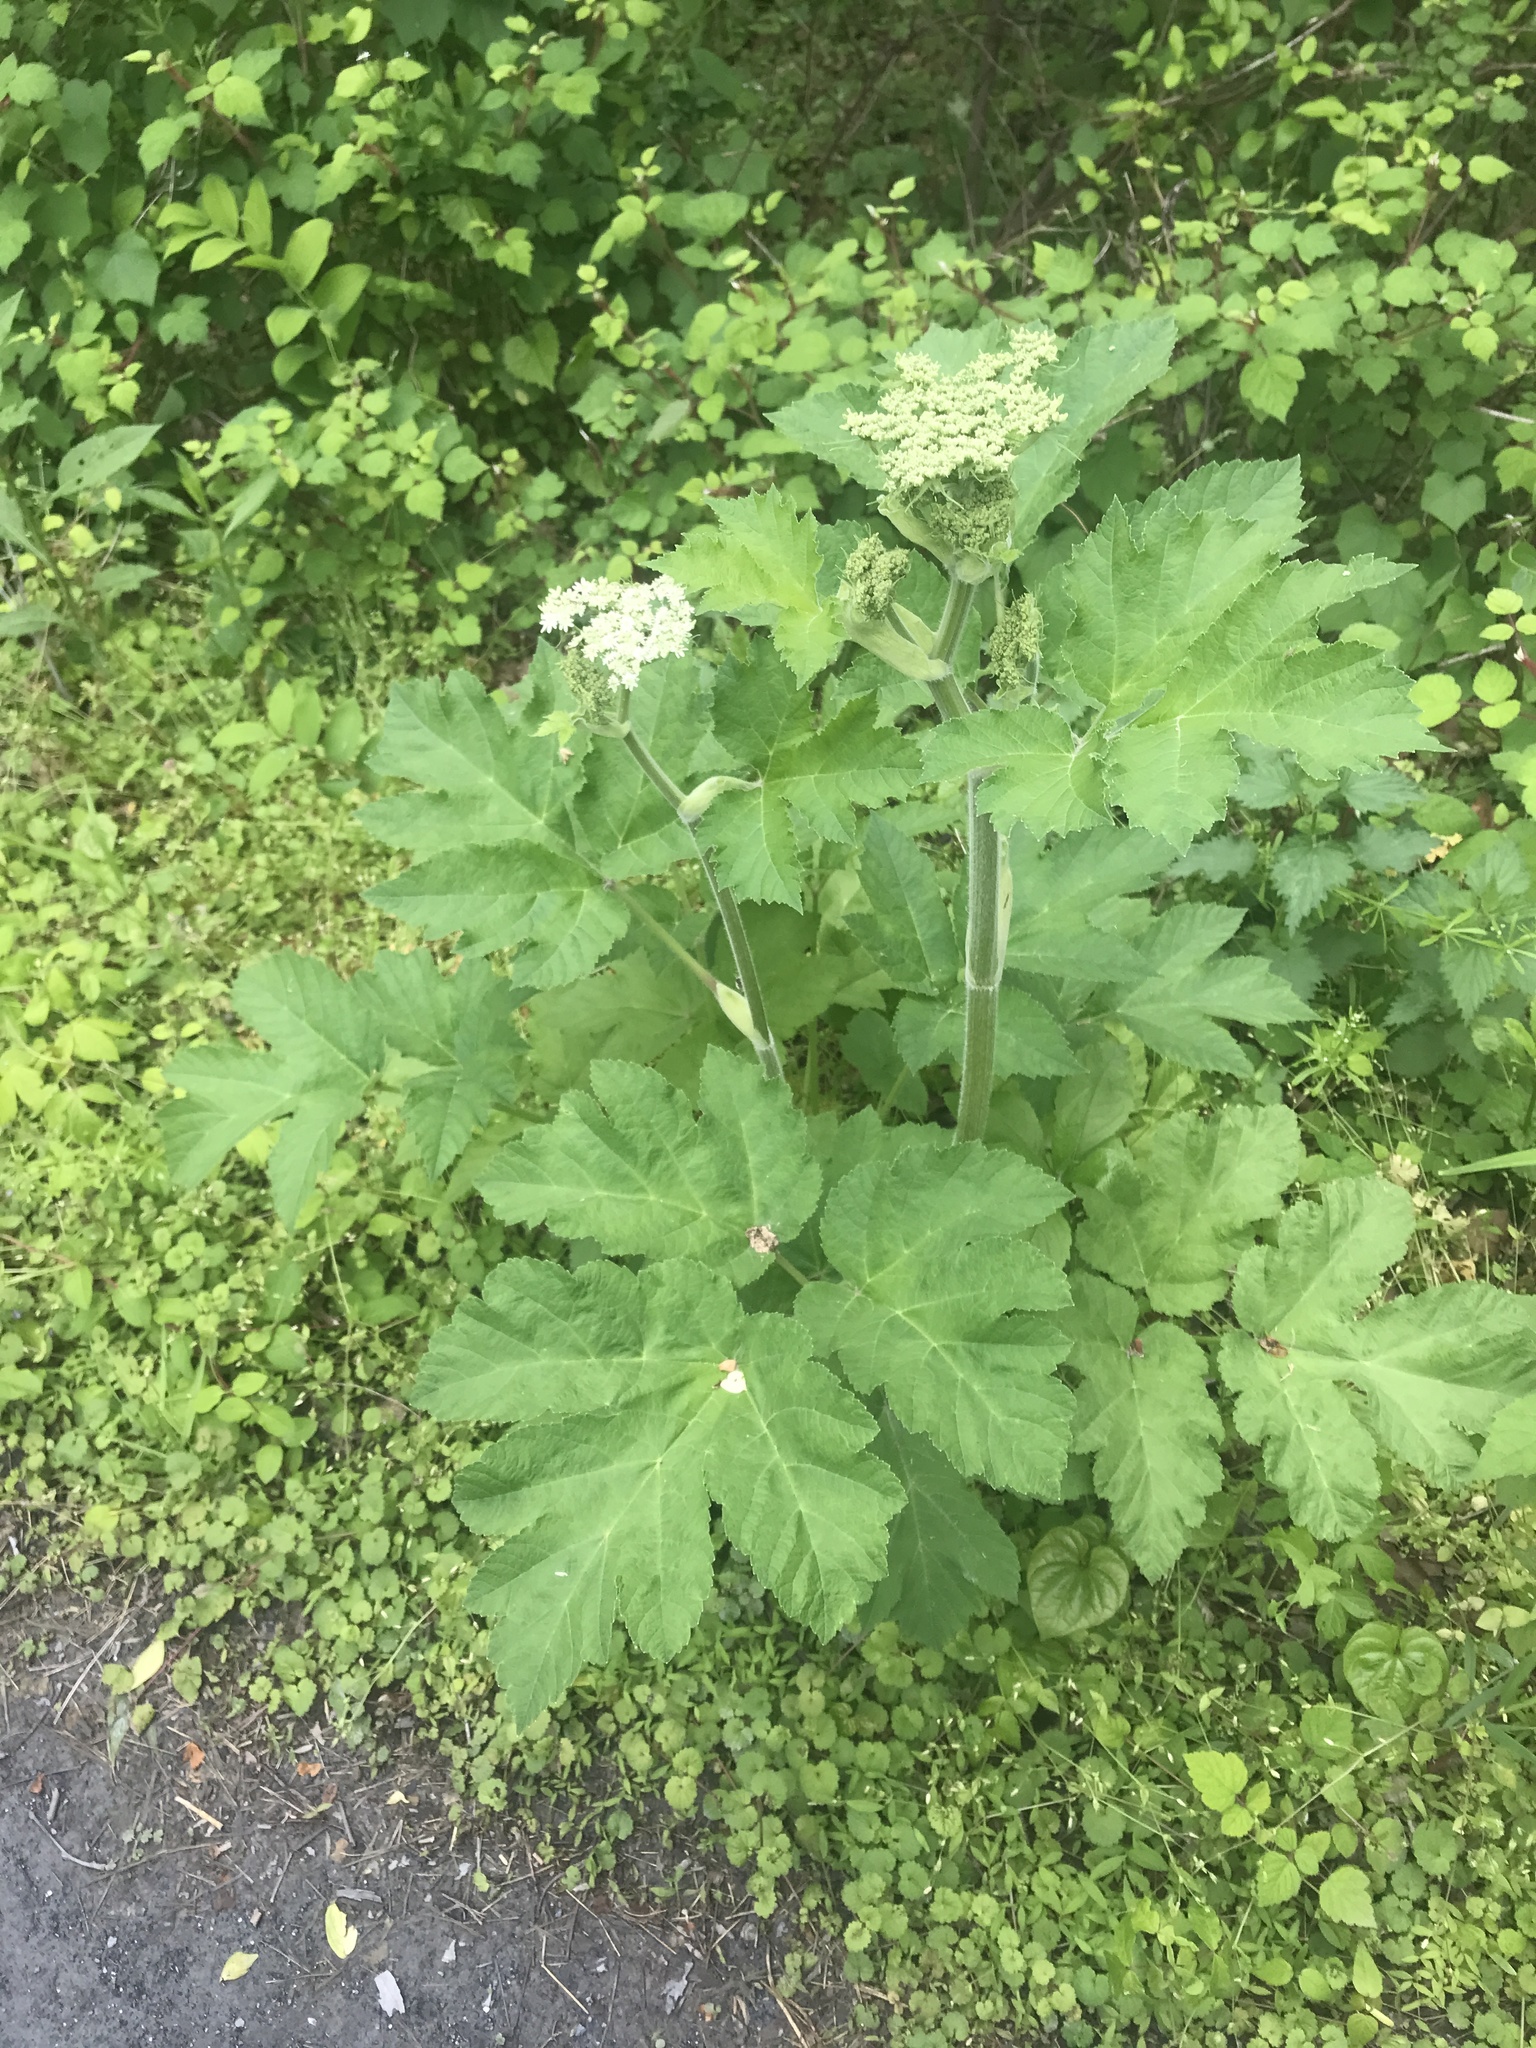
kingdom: Plantae
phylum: Tracheophyta
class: Magnoliopsida
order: Apiales
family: Apiaceae
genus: Heracleum
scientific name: Heracleum maximum
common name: American cow parsnip
